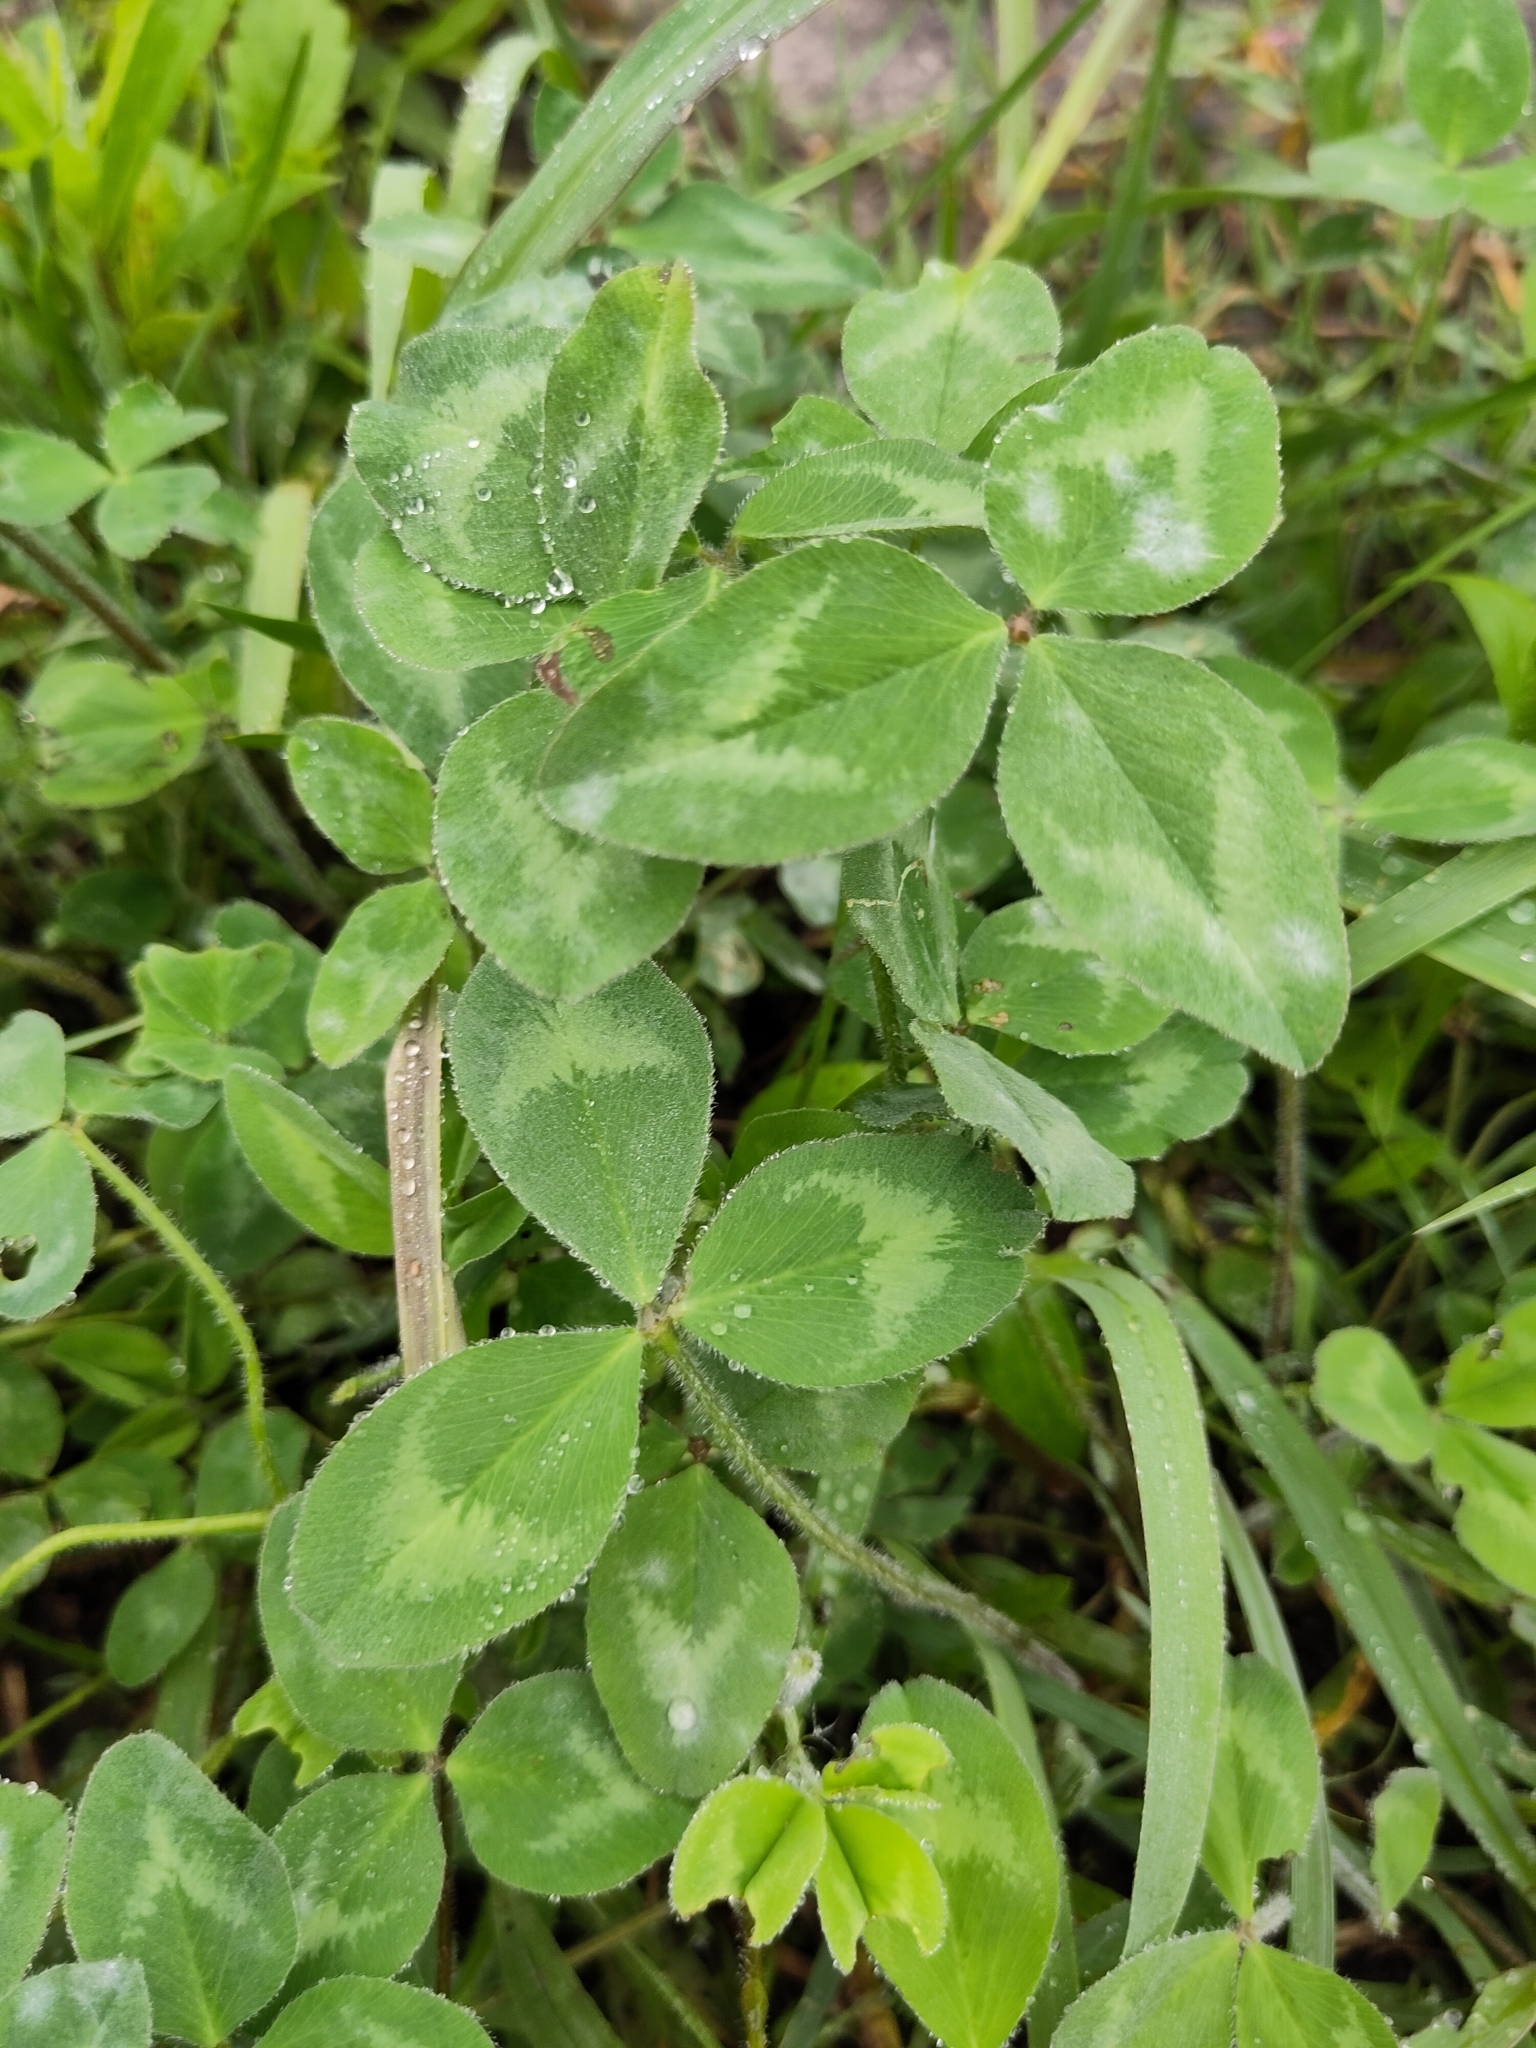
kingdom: Plantae
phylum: Tracheophyta
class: Magnoliopsida
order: Fabales
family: Fabaceae
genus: Trifolium
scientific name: Trifolium pratense
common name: Red clover
